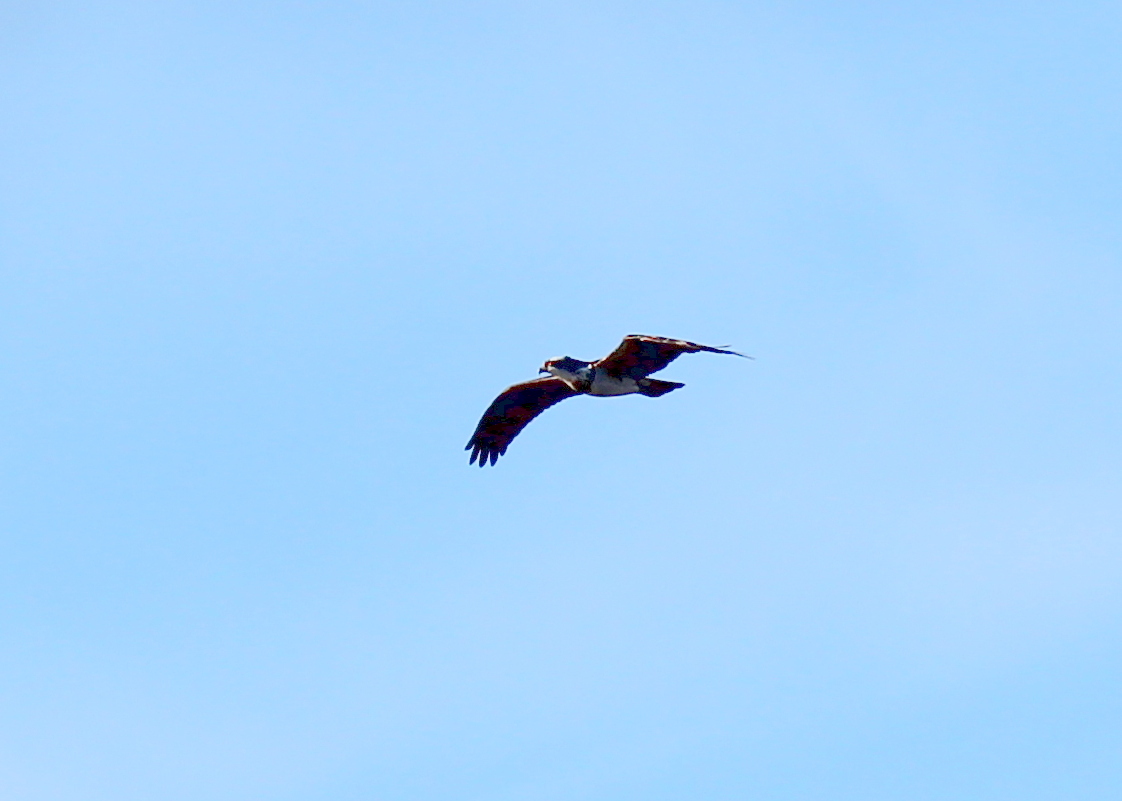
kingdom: Animalia
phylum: Chordata
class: Aves
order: Accipitriformes
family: Pandionidae
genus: Pandion
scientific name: Pandion haliaetus
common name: Osprey
